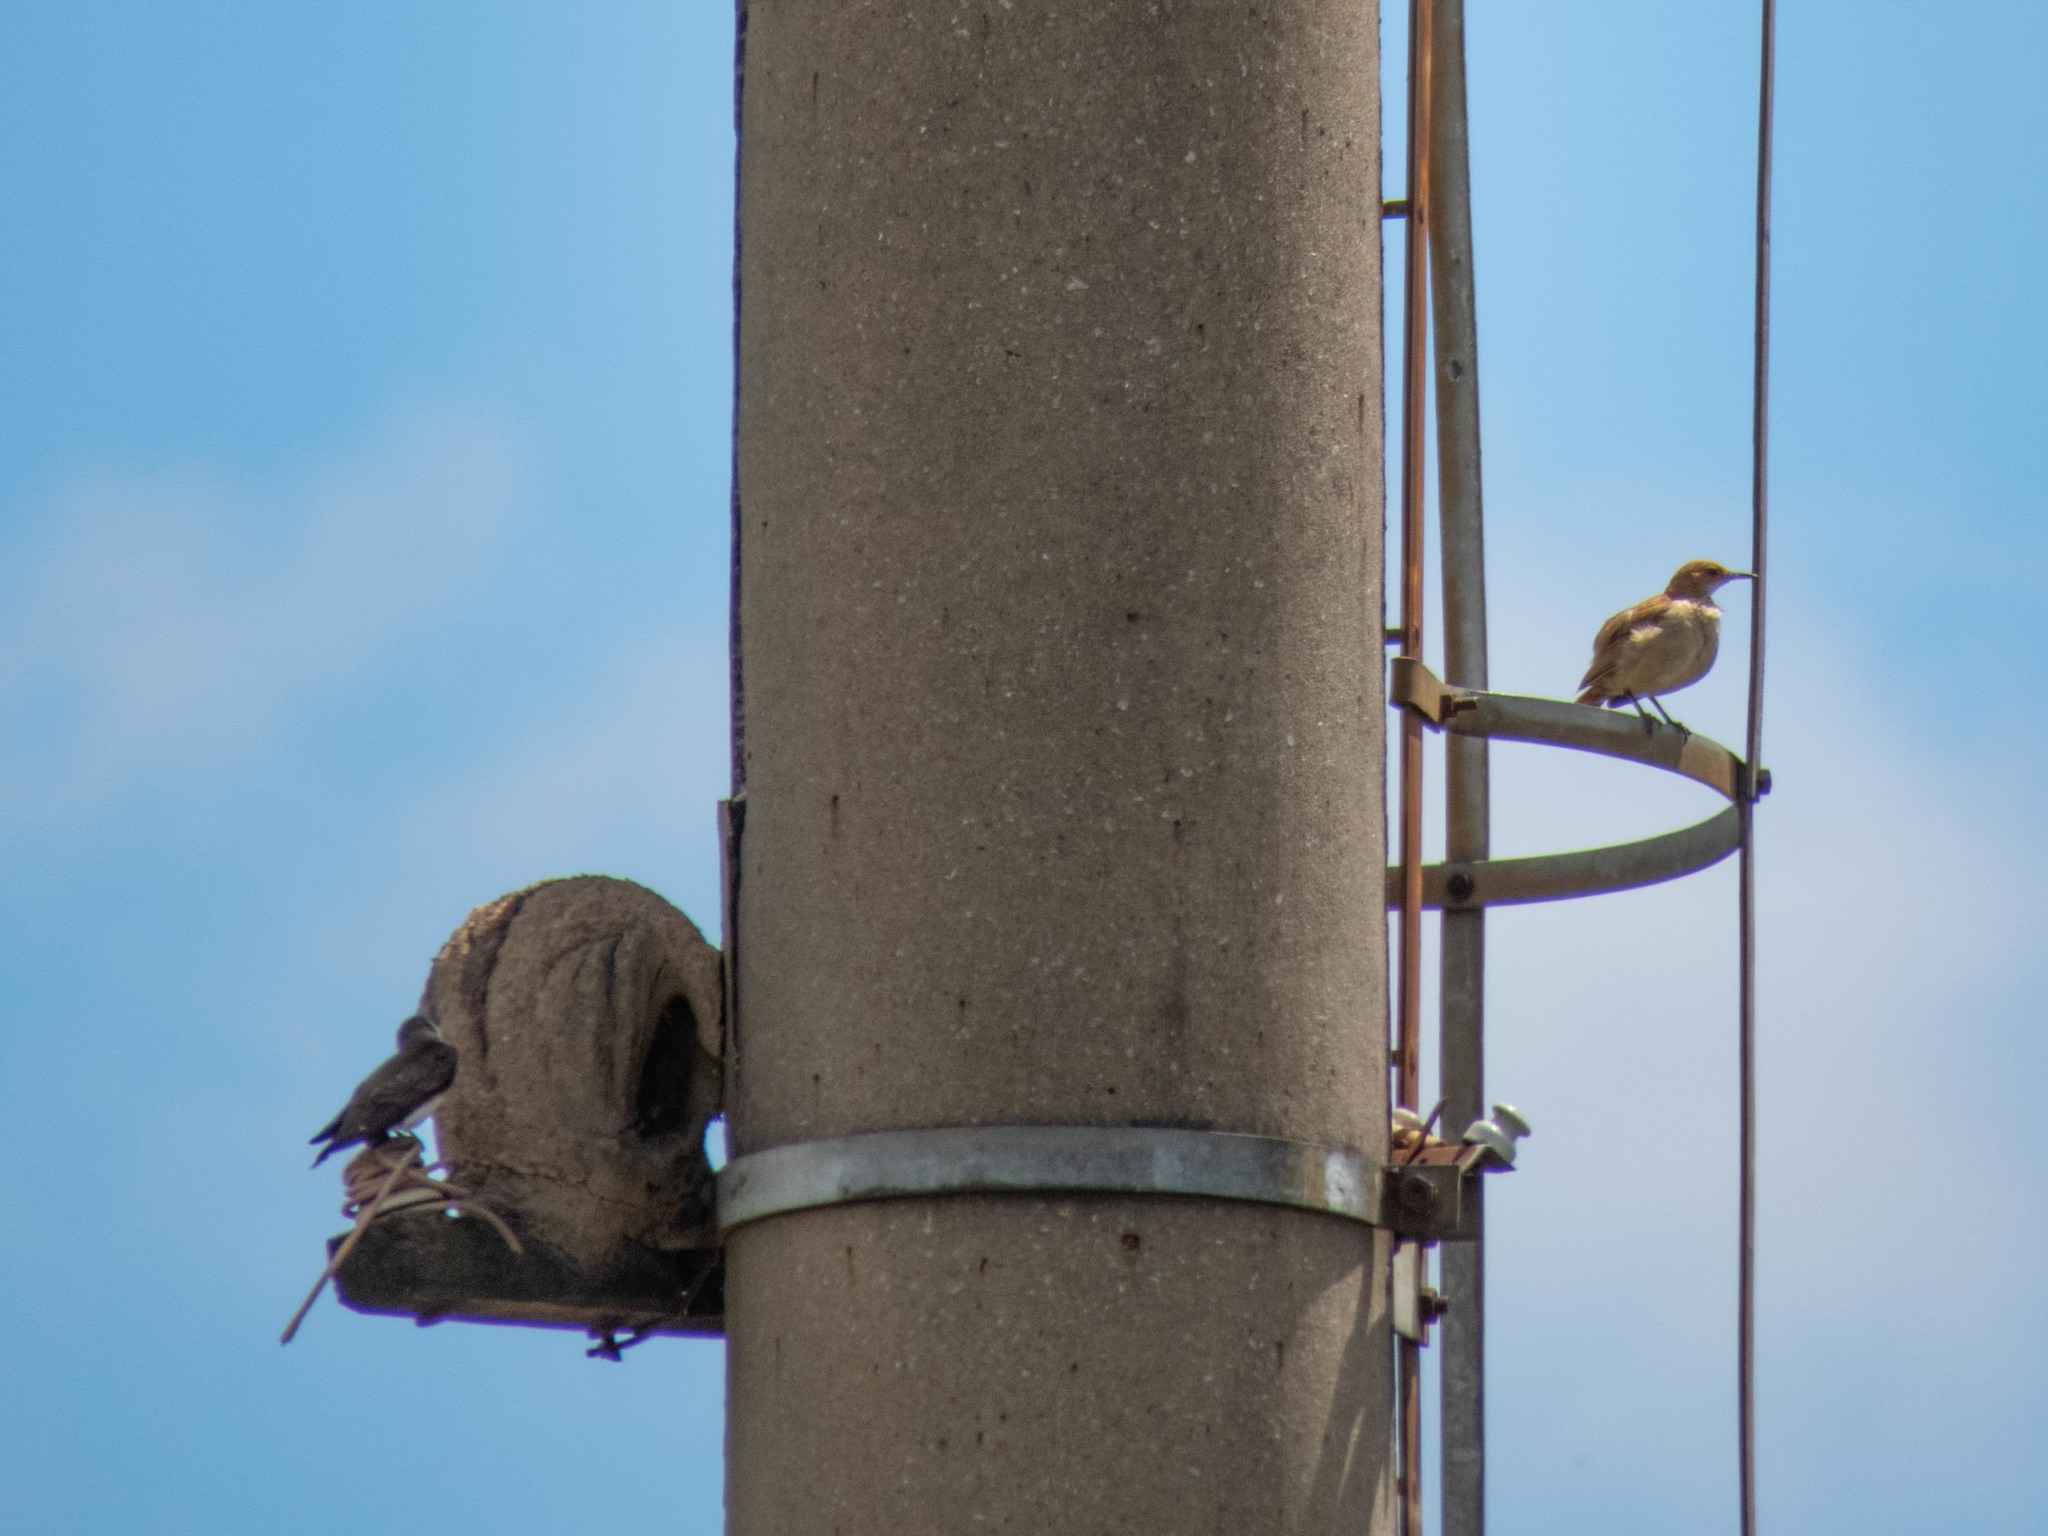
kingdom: Animalia
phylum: Chordata
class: Aves
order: Passeriformes
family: Furnariidae
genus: Furnarius
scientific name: Furnarius rufus
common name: Rufous hornero
